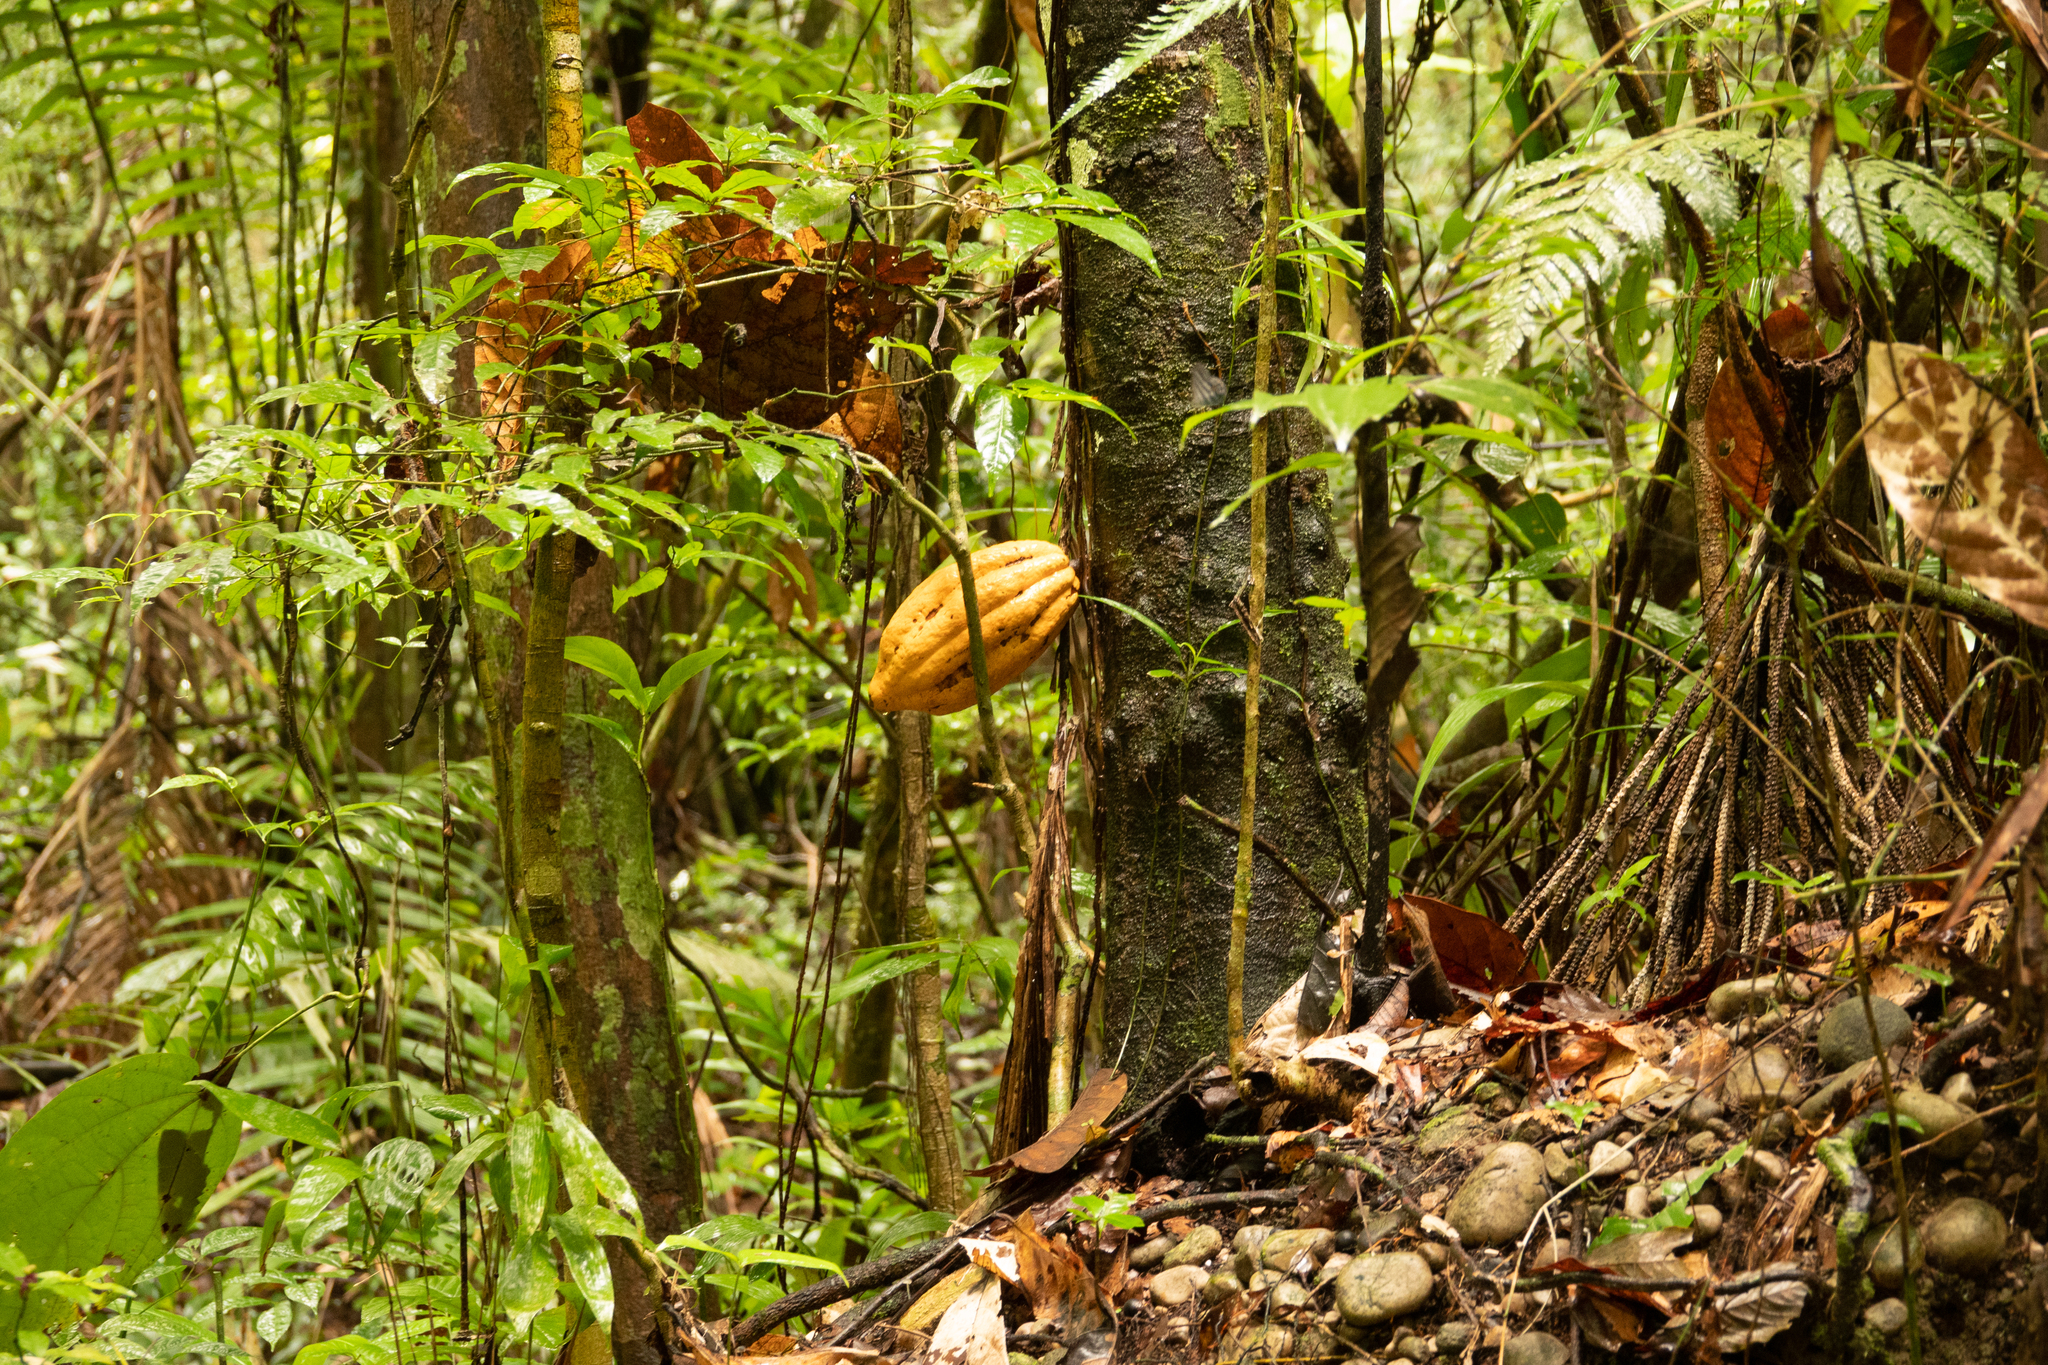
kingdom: Plantae
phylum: Tracheophyta
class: Magnoliopsida
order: Malvales
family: Malvaceae
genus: Theobroma
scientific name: Theobroma cacao
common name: Cocoa
